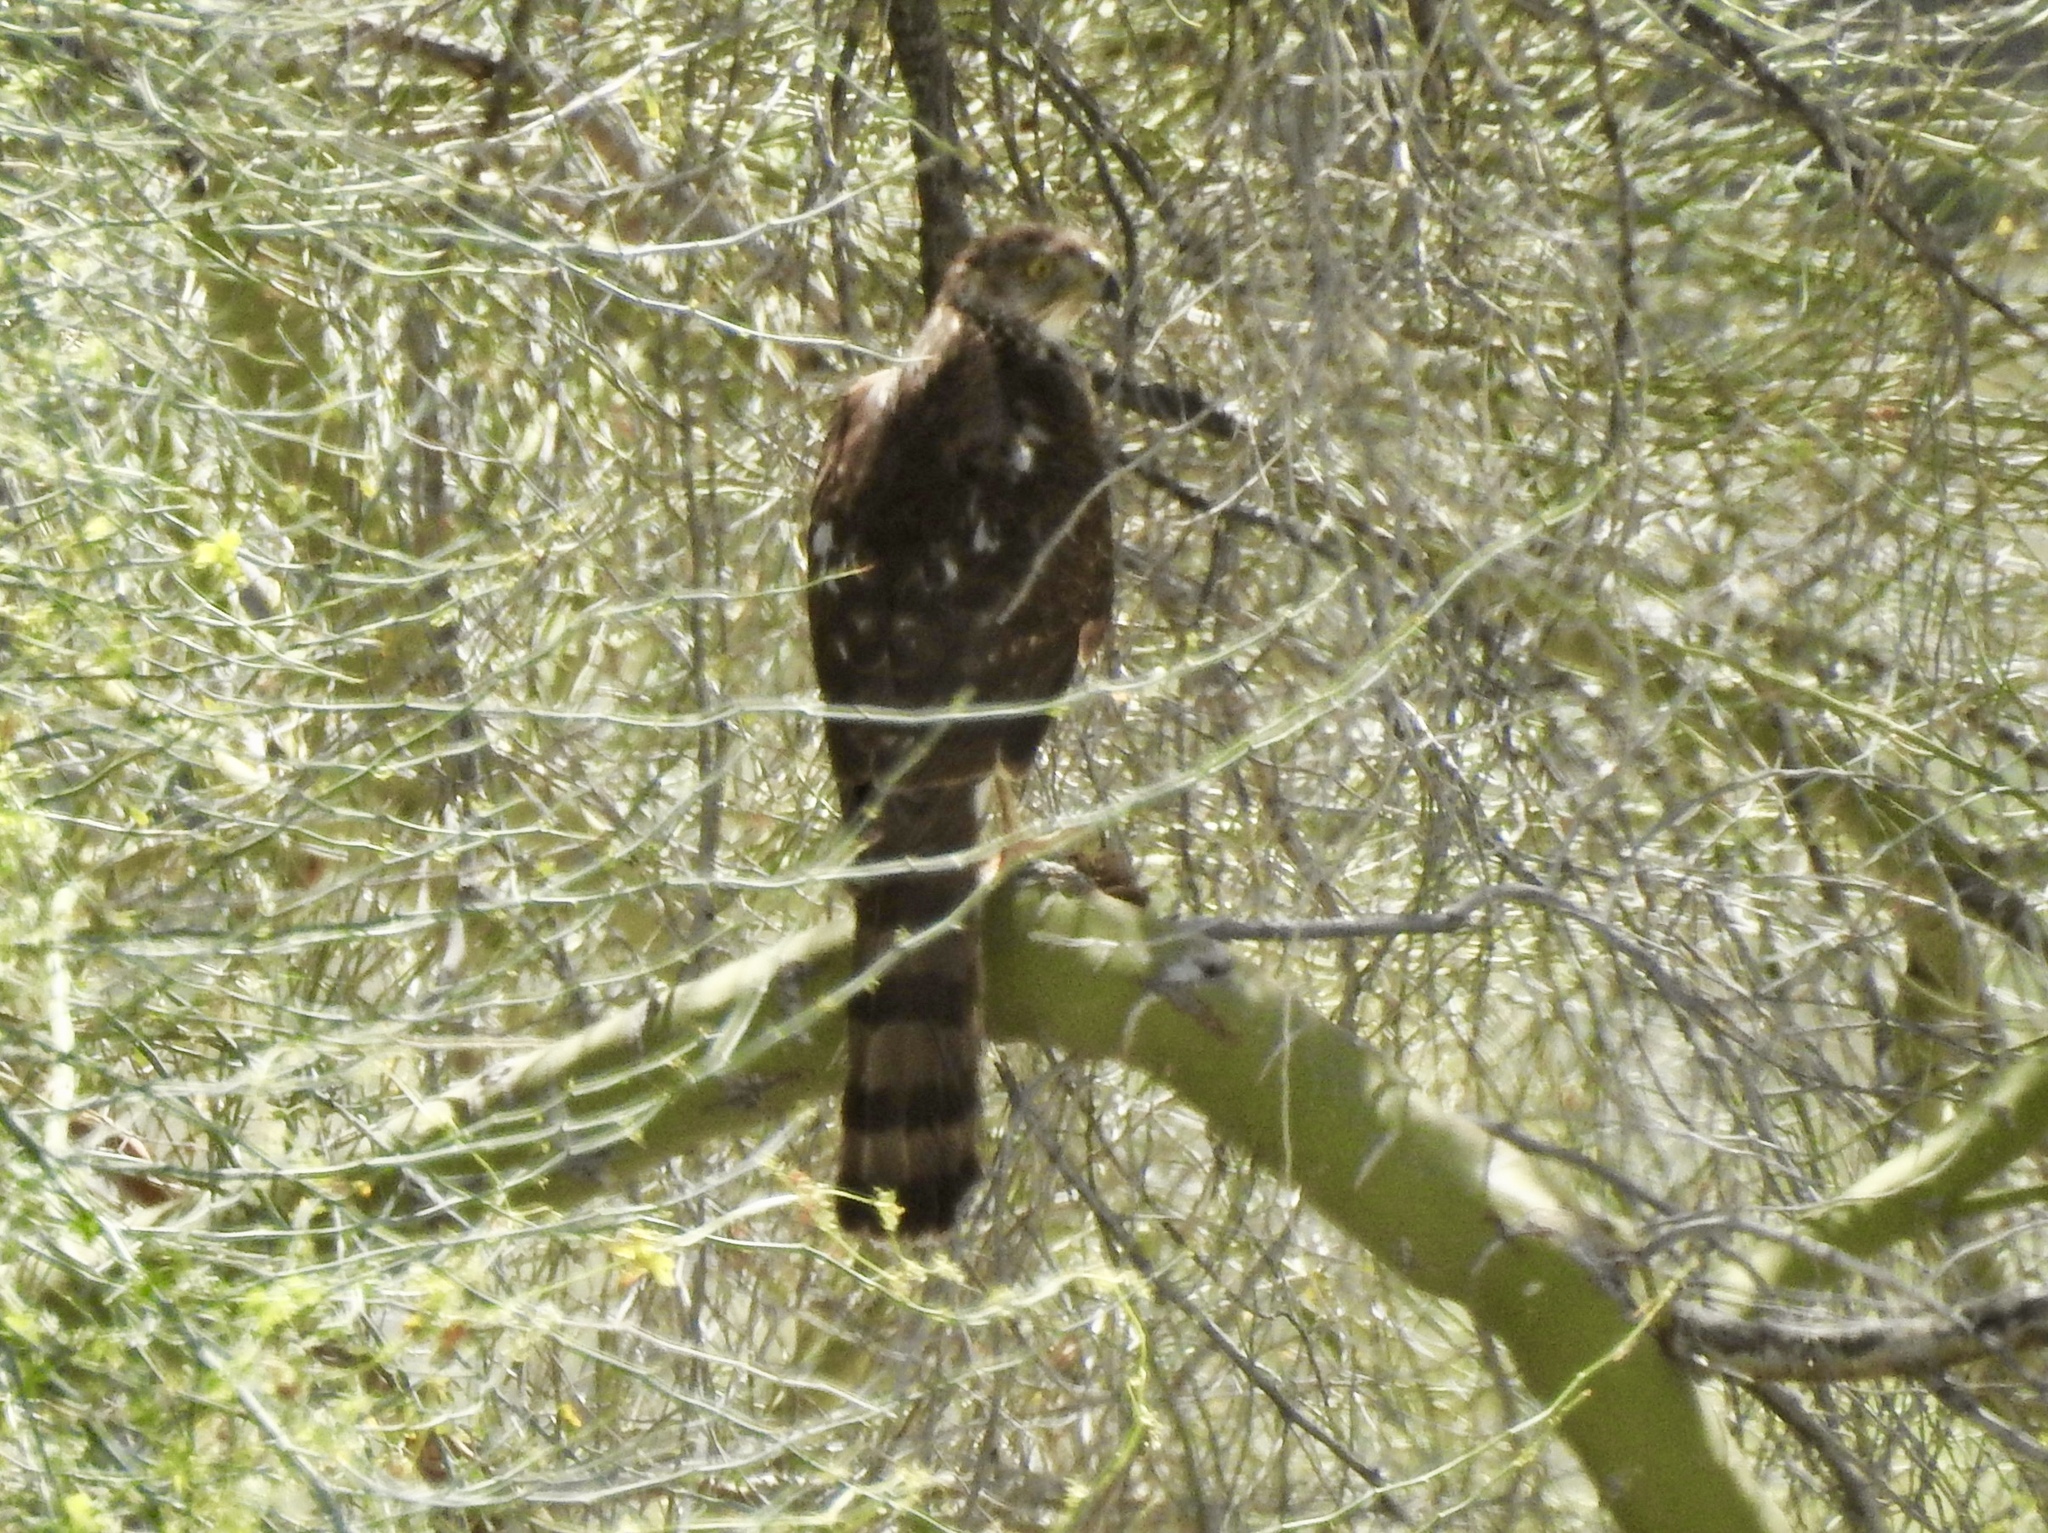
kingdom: Animalia
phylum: Chordata
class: Aves
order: Accipitriformes
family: Accipitridae
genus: Accipiter
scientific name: Accipiter cooperii
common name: Cooper's hawk
